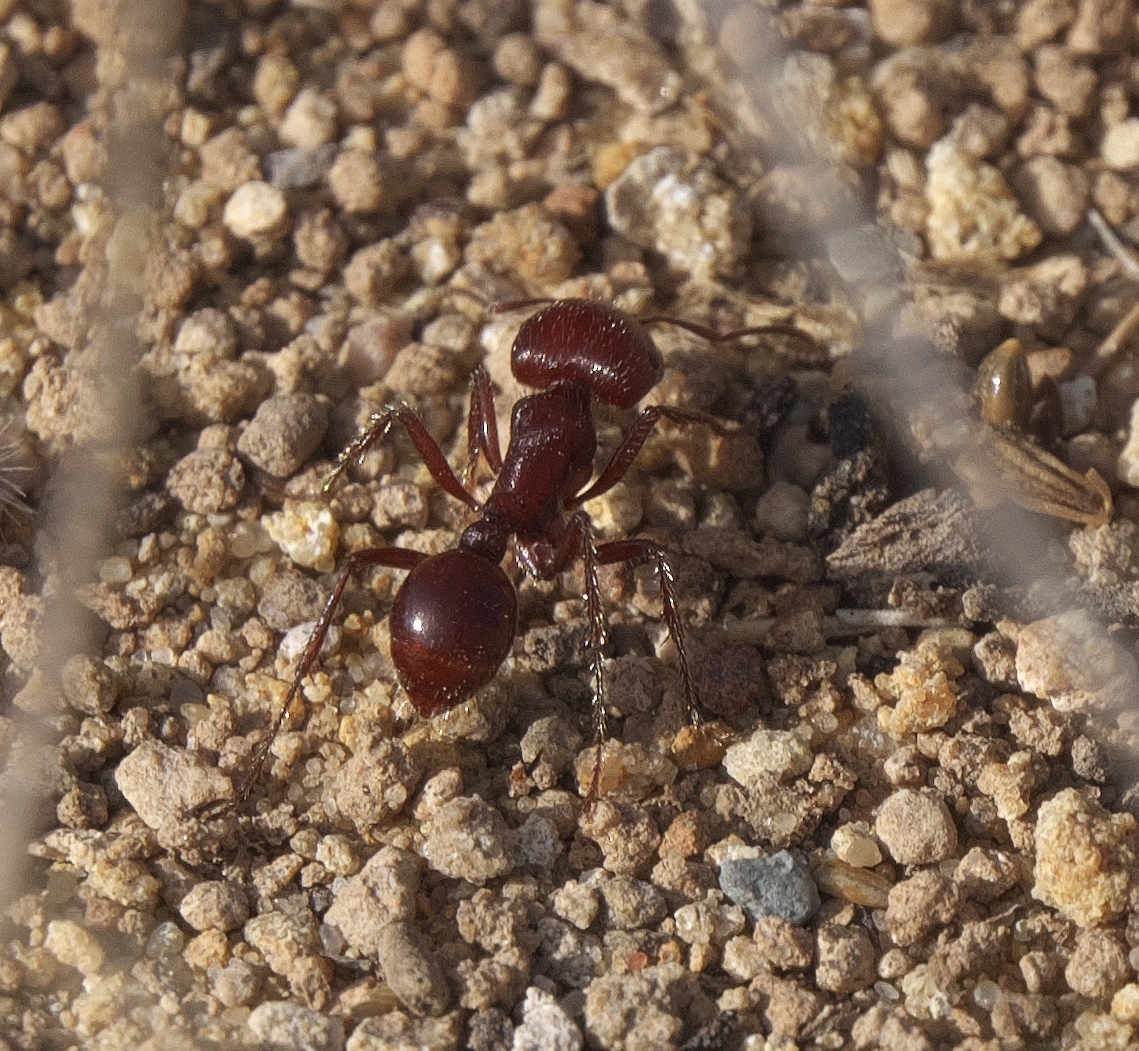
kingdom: Animalia
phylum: Arthropoda
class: Insecta
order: Hymenoptera
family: Formicidae
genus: Pogonomyrmex
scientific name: Pogonomyrmex
